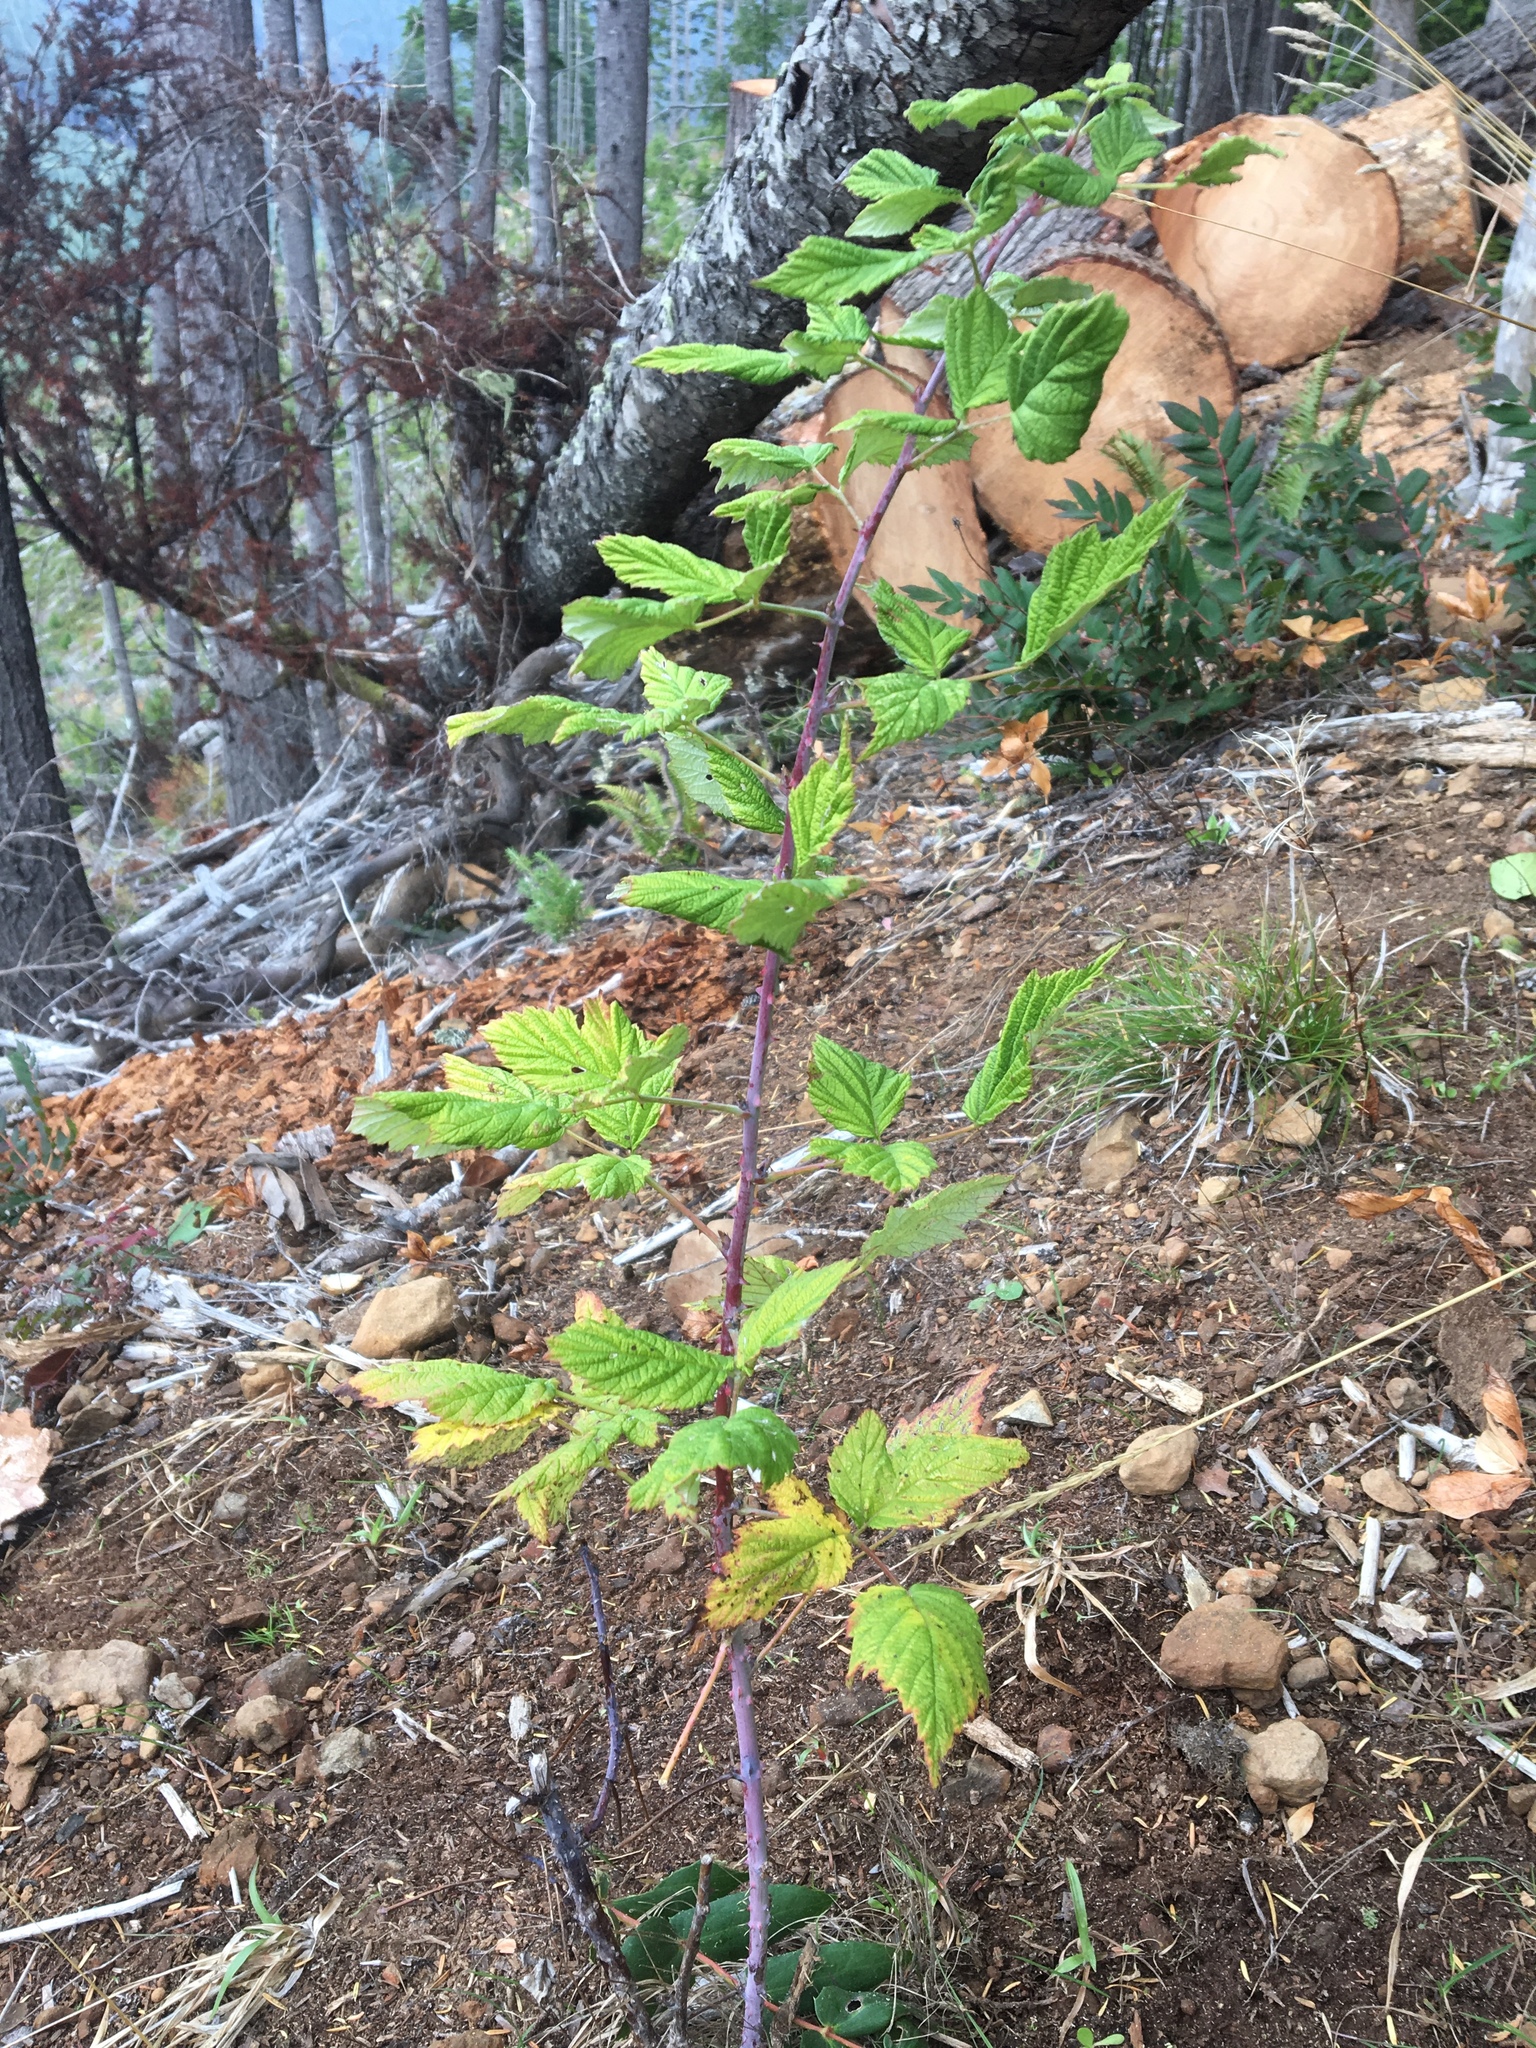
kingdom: Plantae
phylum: Tracheophyta
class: Magnoliopsida
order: Rosales
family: Rosaceae
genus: Rubus
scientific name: Rubus leucodermis
